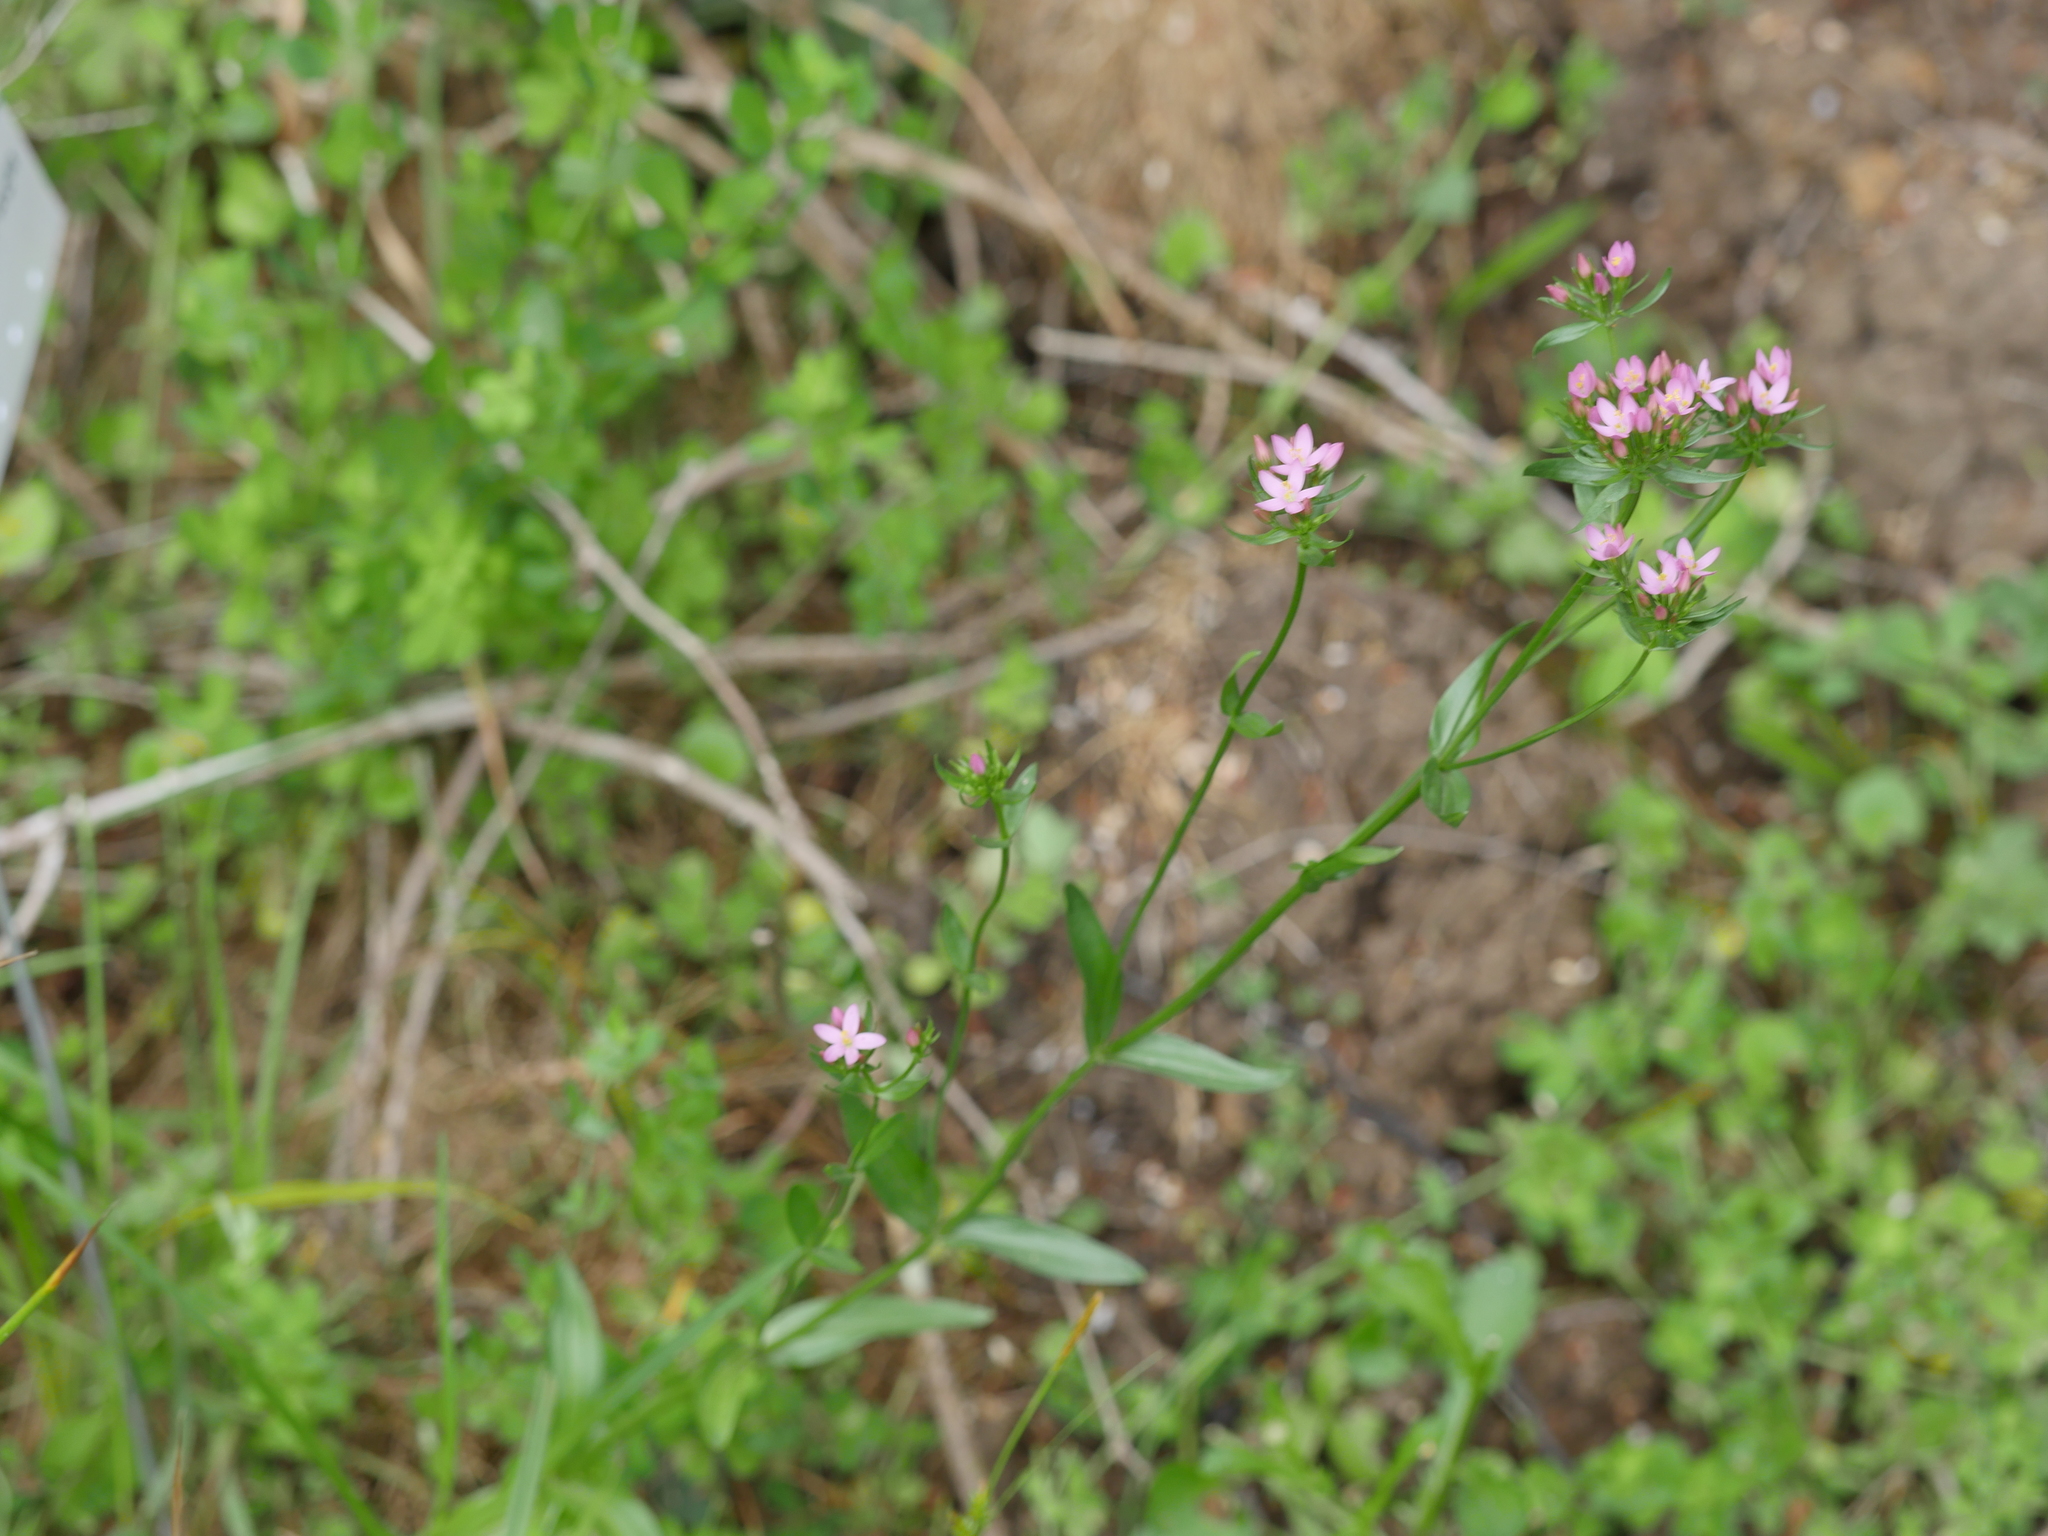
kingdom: Plantae
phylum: Tracheophyta
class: Magnoliopsida
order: Gentianales
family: Gentianaceae
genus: Centaurium
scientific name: Centaurium erythraea
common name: Common centaury
